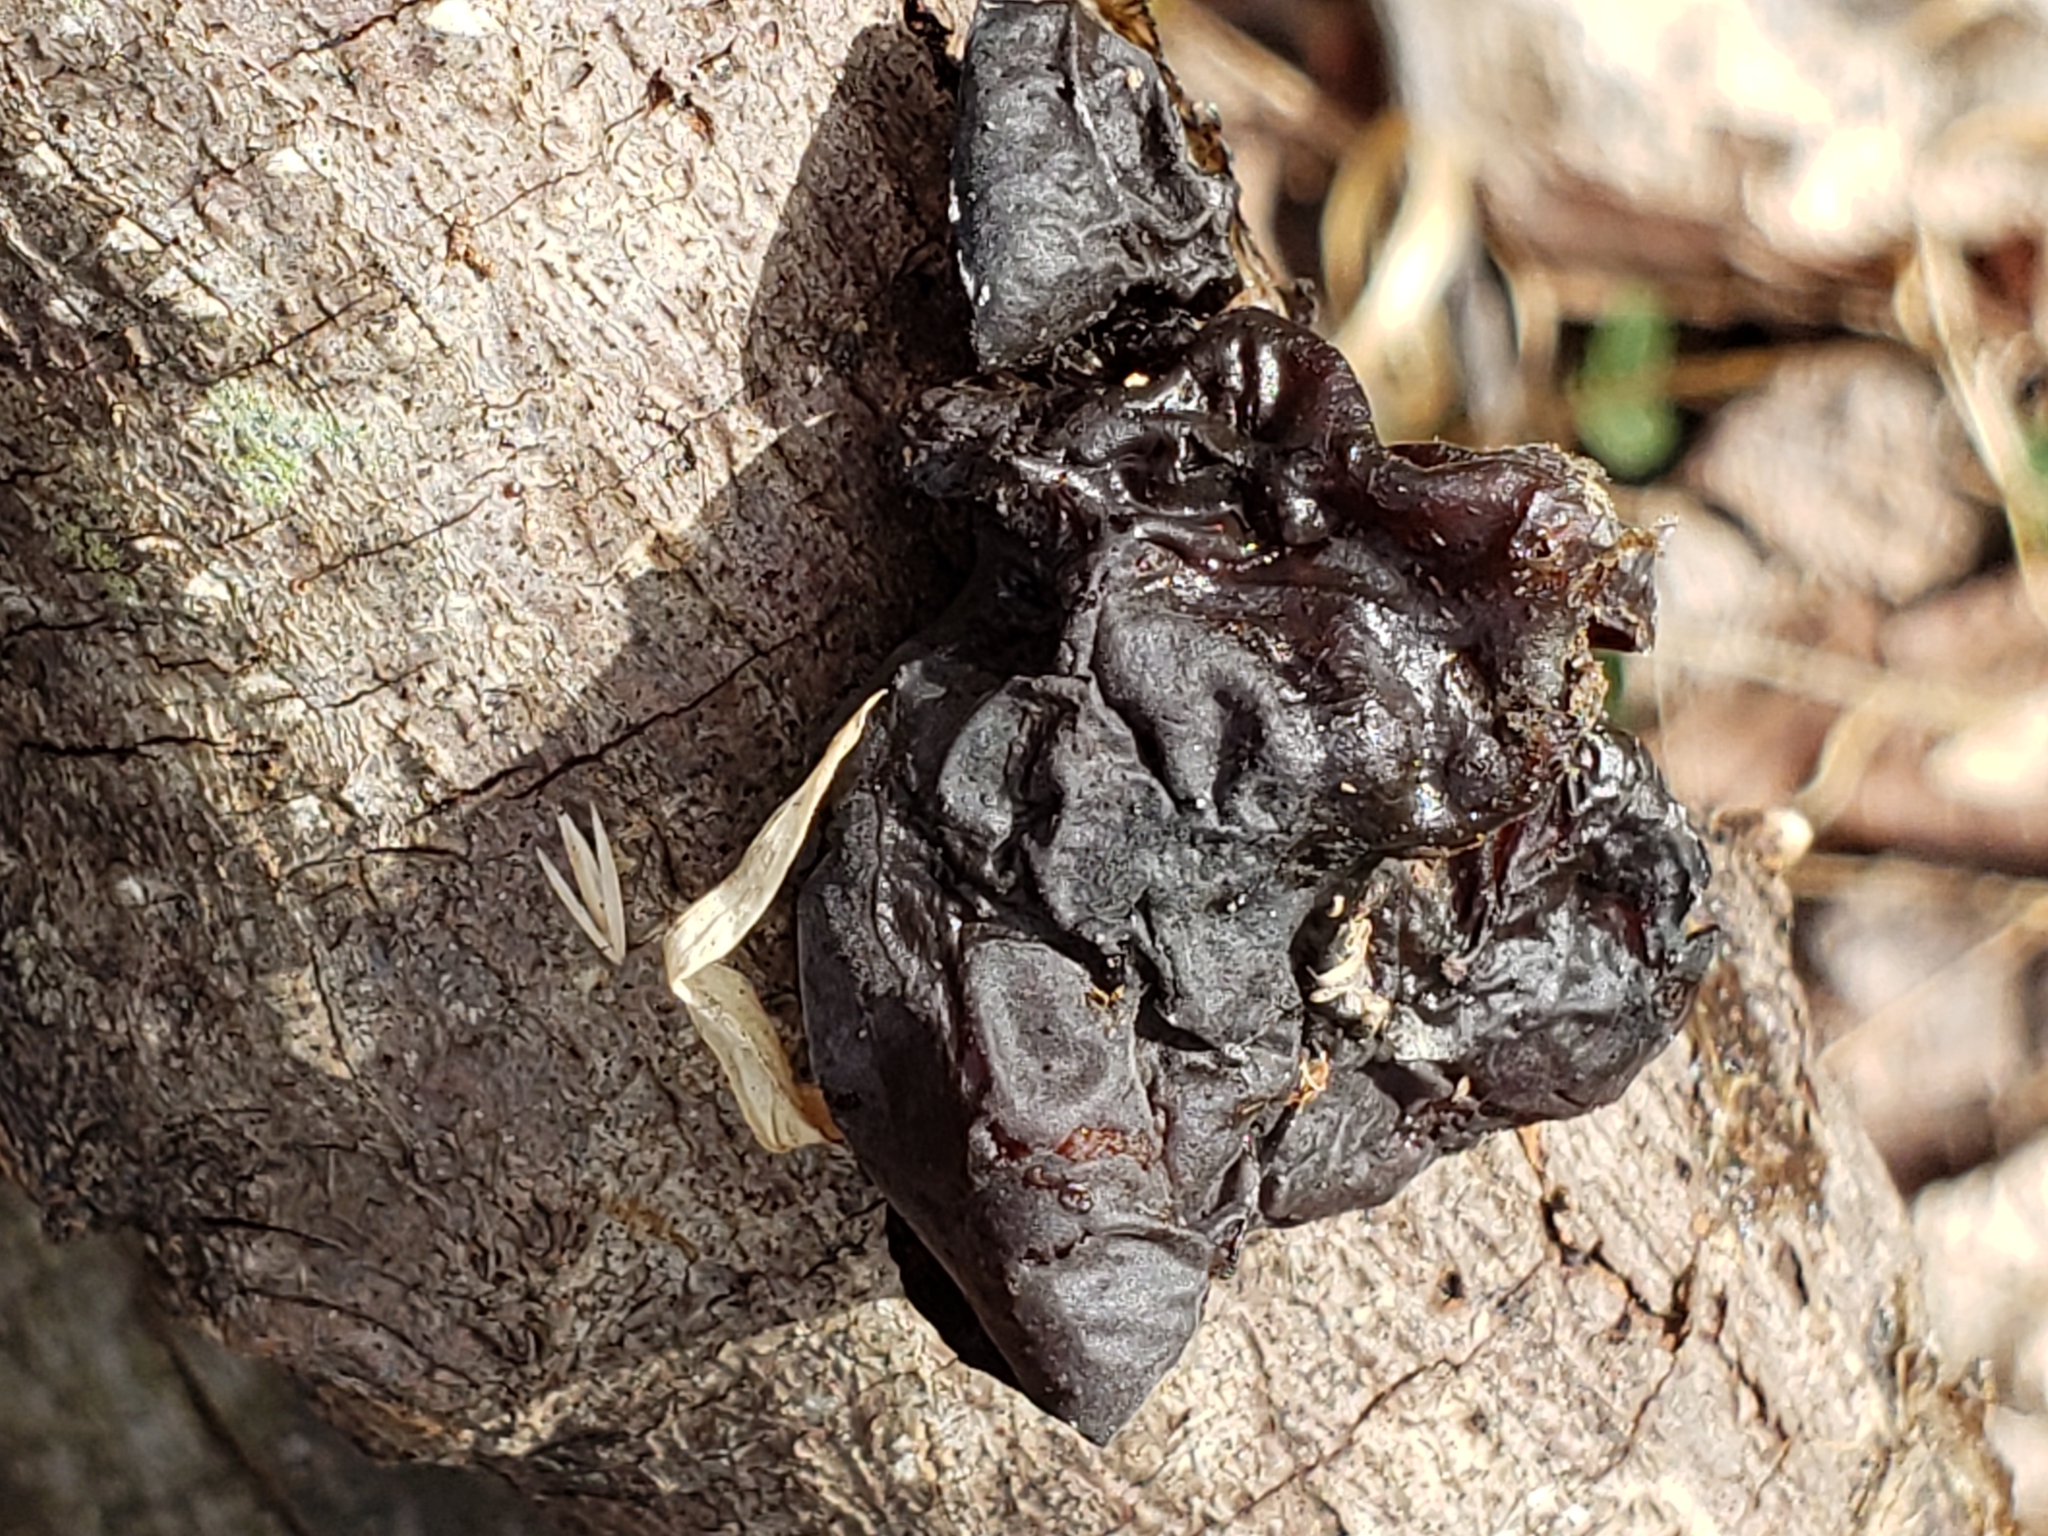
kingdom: Fungi
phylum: Basidiomycota
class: Agaricomycetes
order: Auriculariales
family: Auriculariaceae
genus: Exidia
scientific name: Exidia
